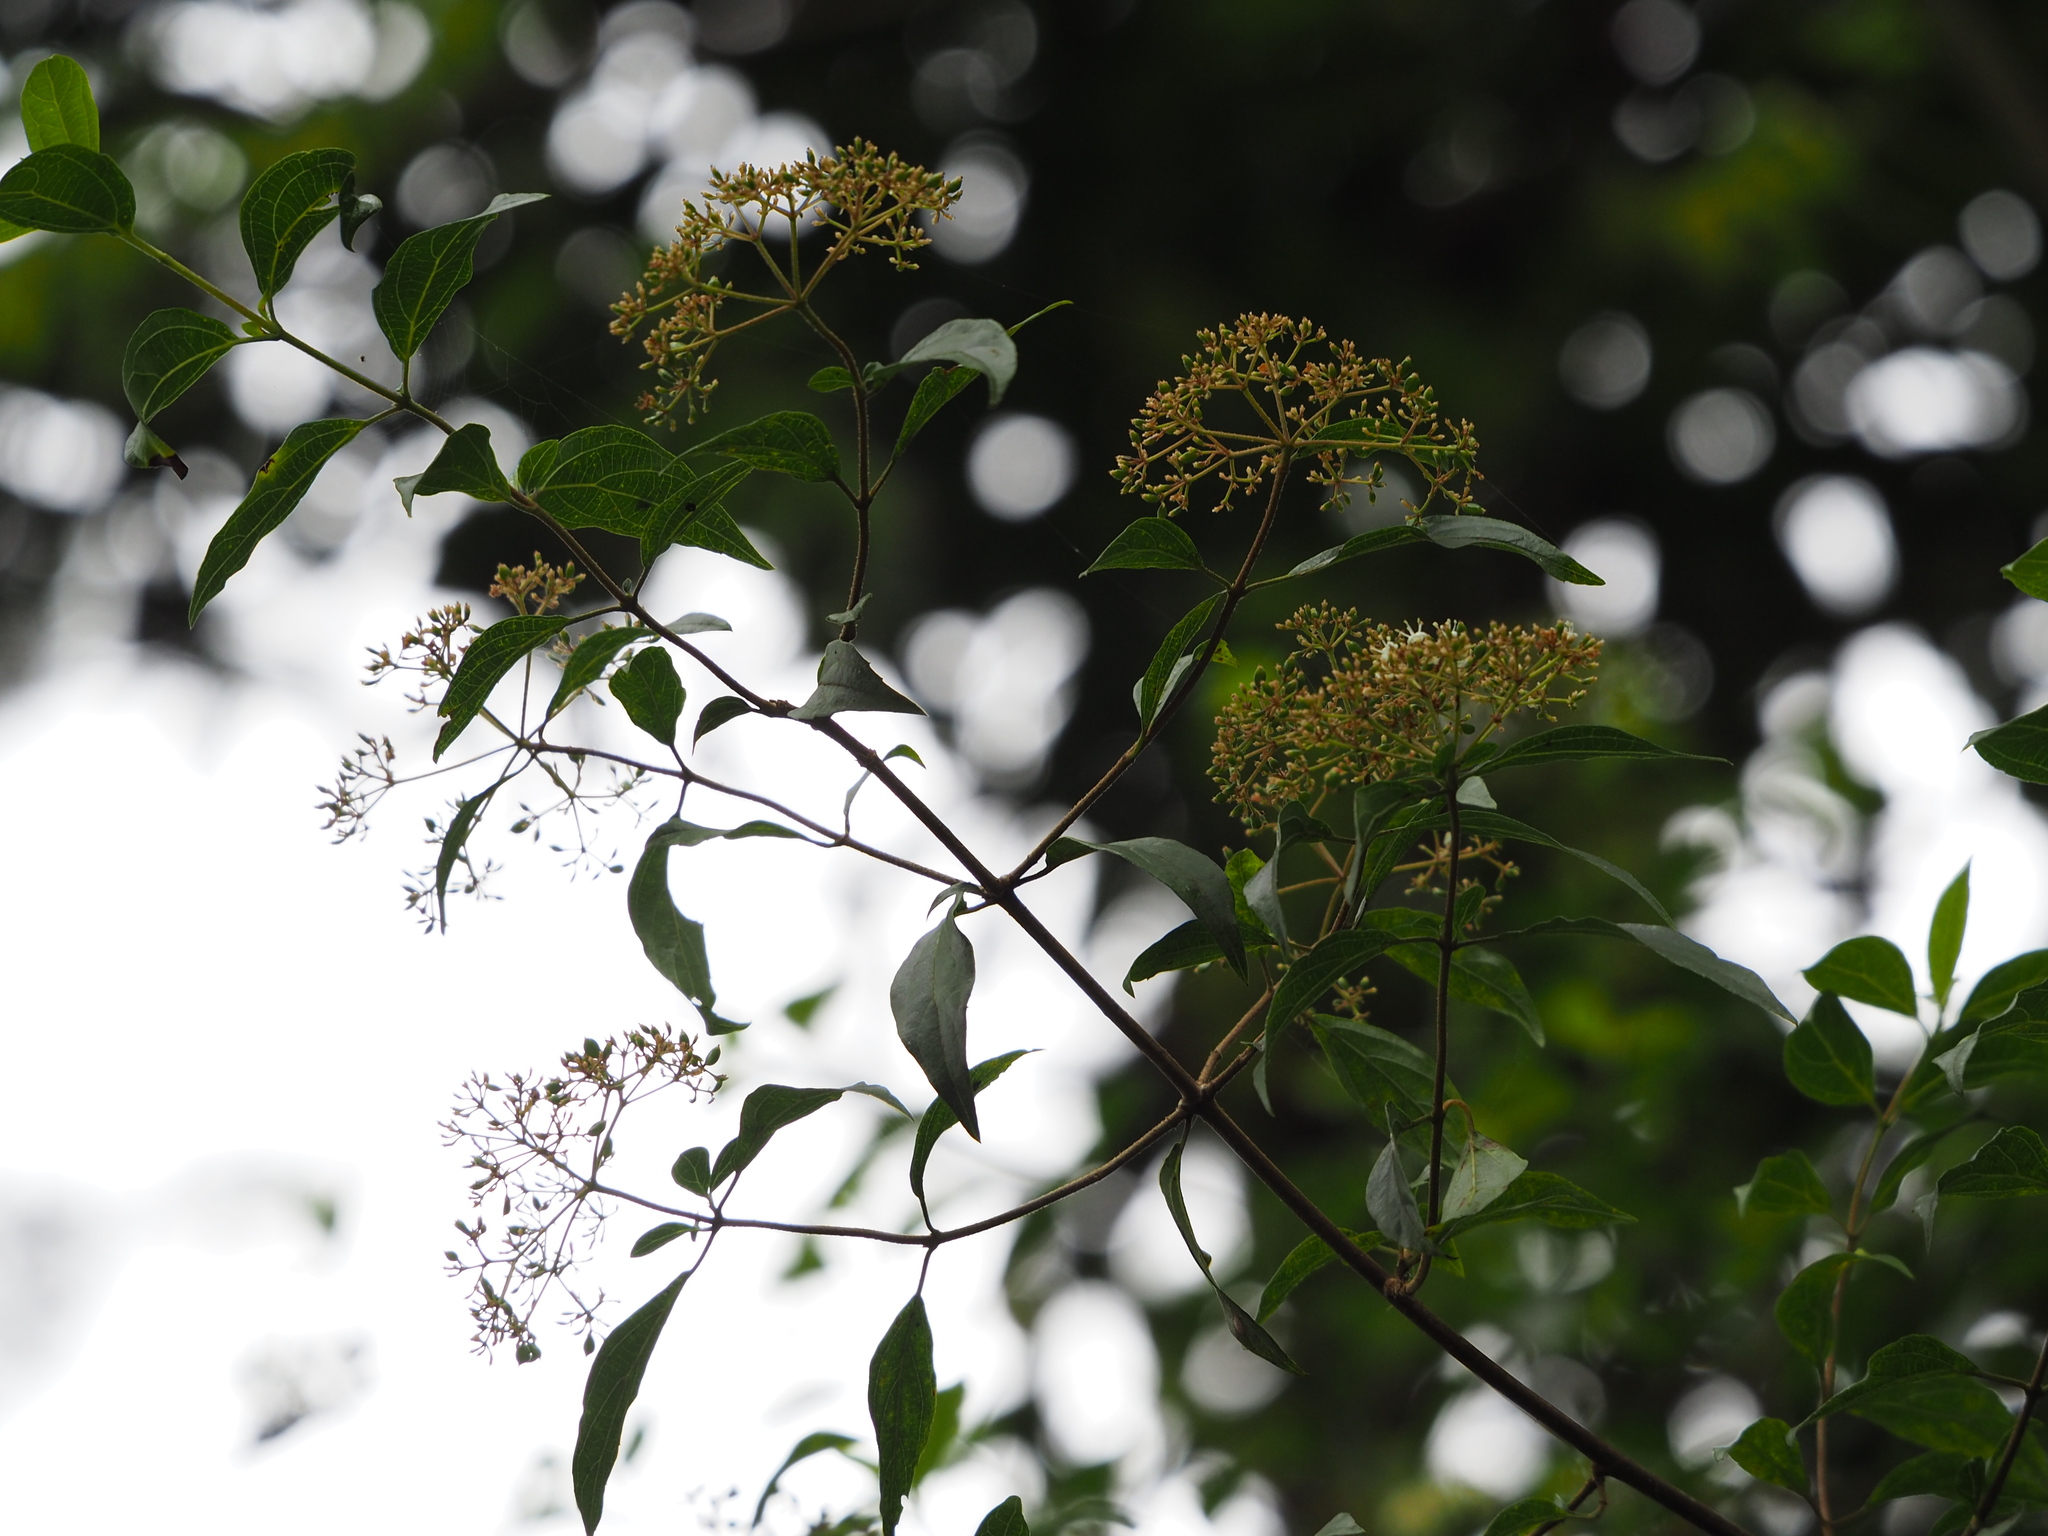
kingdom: Plantae
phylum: Tracheophyta
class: Magnoliopsida
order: Dipsacales
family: Viburnaceae
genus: Viburnum
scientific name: Viburnum foetidum
